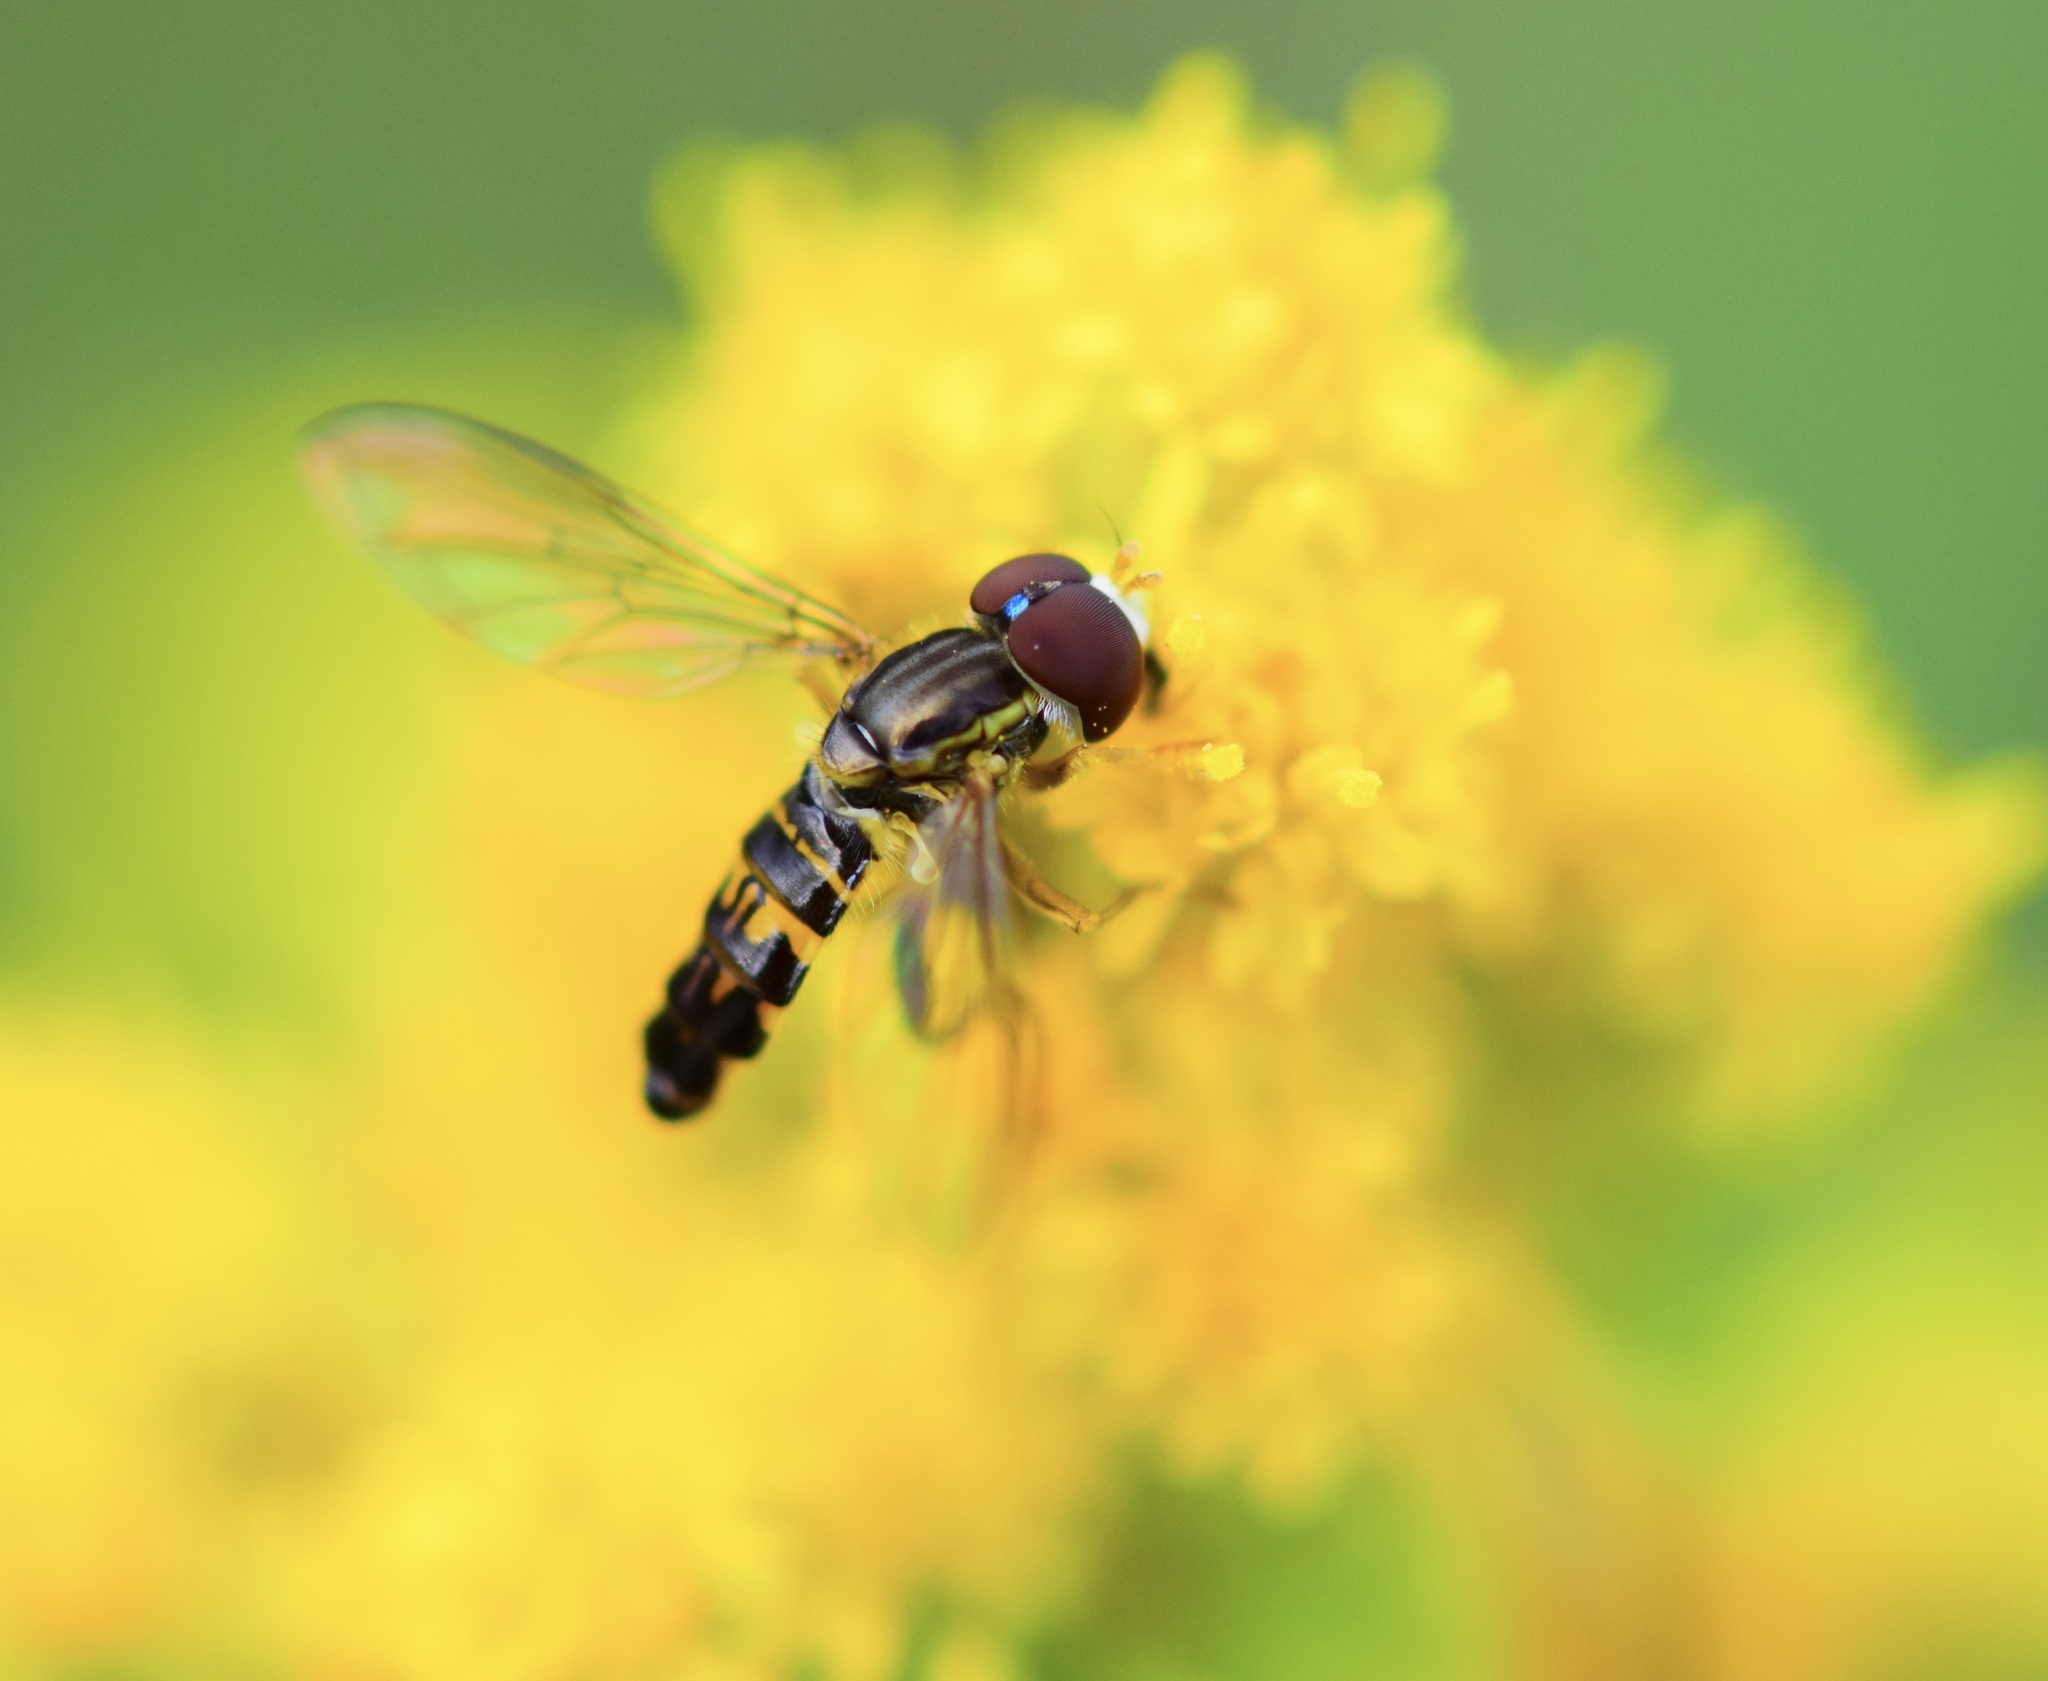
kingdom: Animalia
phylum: Arthropoda
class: Insecta
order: Diptera
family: Syrphidae
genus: Toxomerus
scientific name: Toxomerus geminatus
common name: Eastern calligrapher
